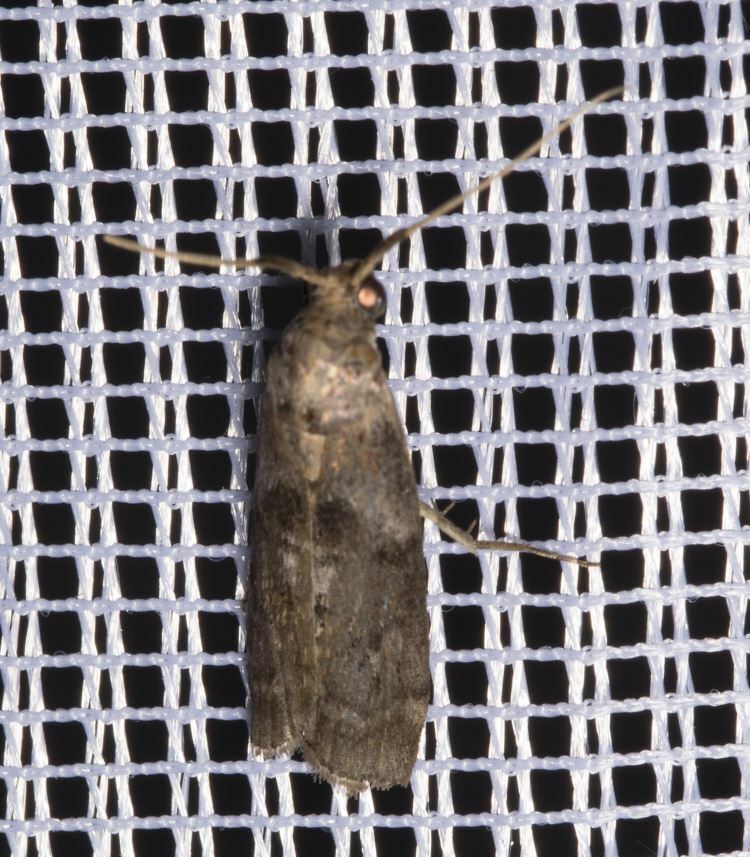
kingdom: Animalia
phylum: Arthropoda
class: Insecta
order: Lepidoptera
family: Pyralidae
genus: Phycita
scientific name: Phycita roborella
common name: Dotted oak knot-horn
